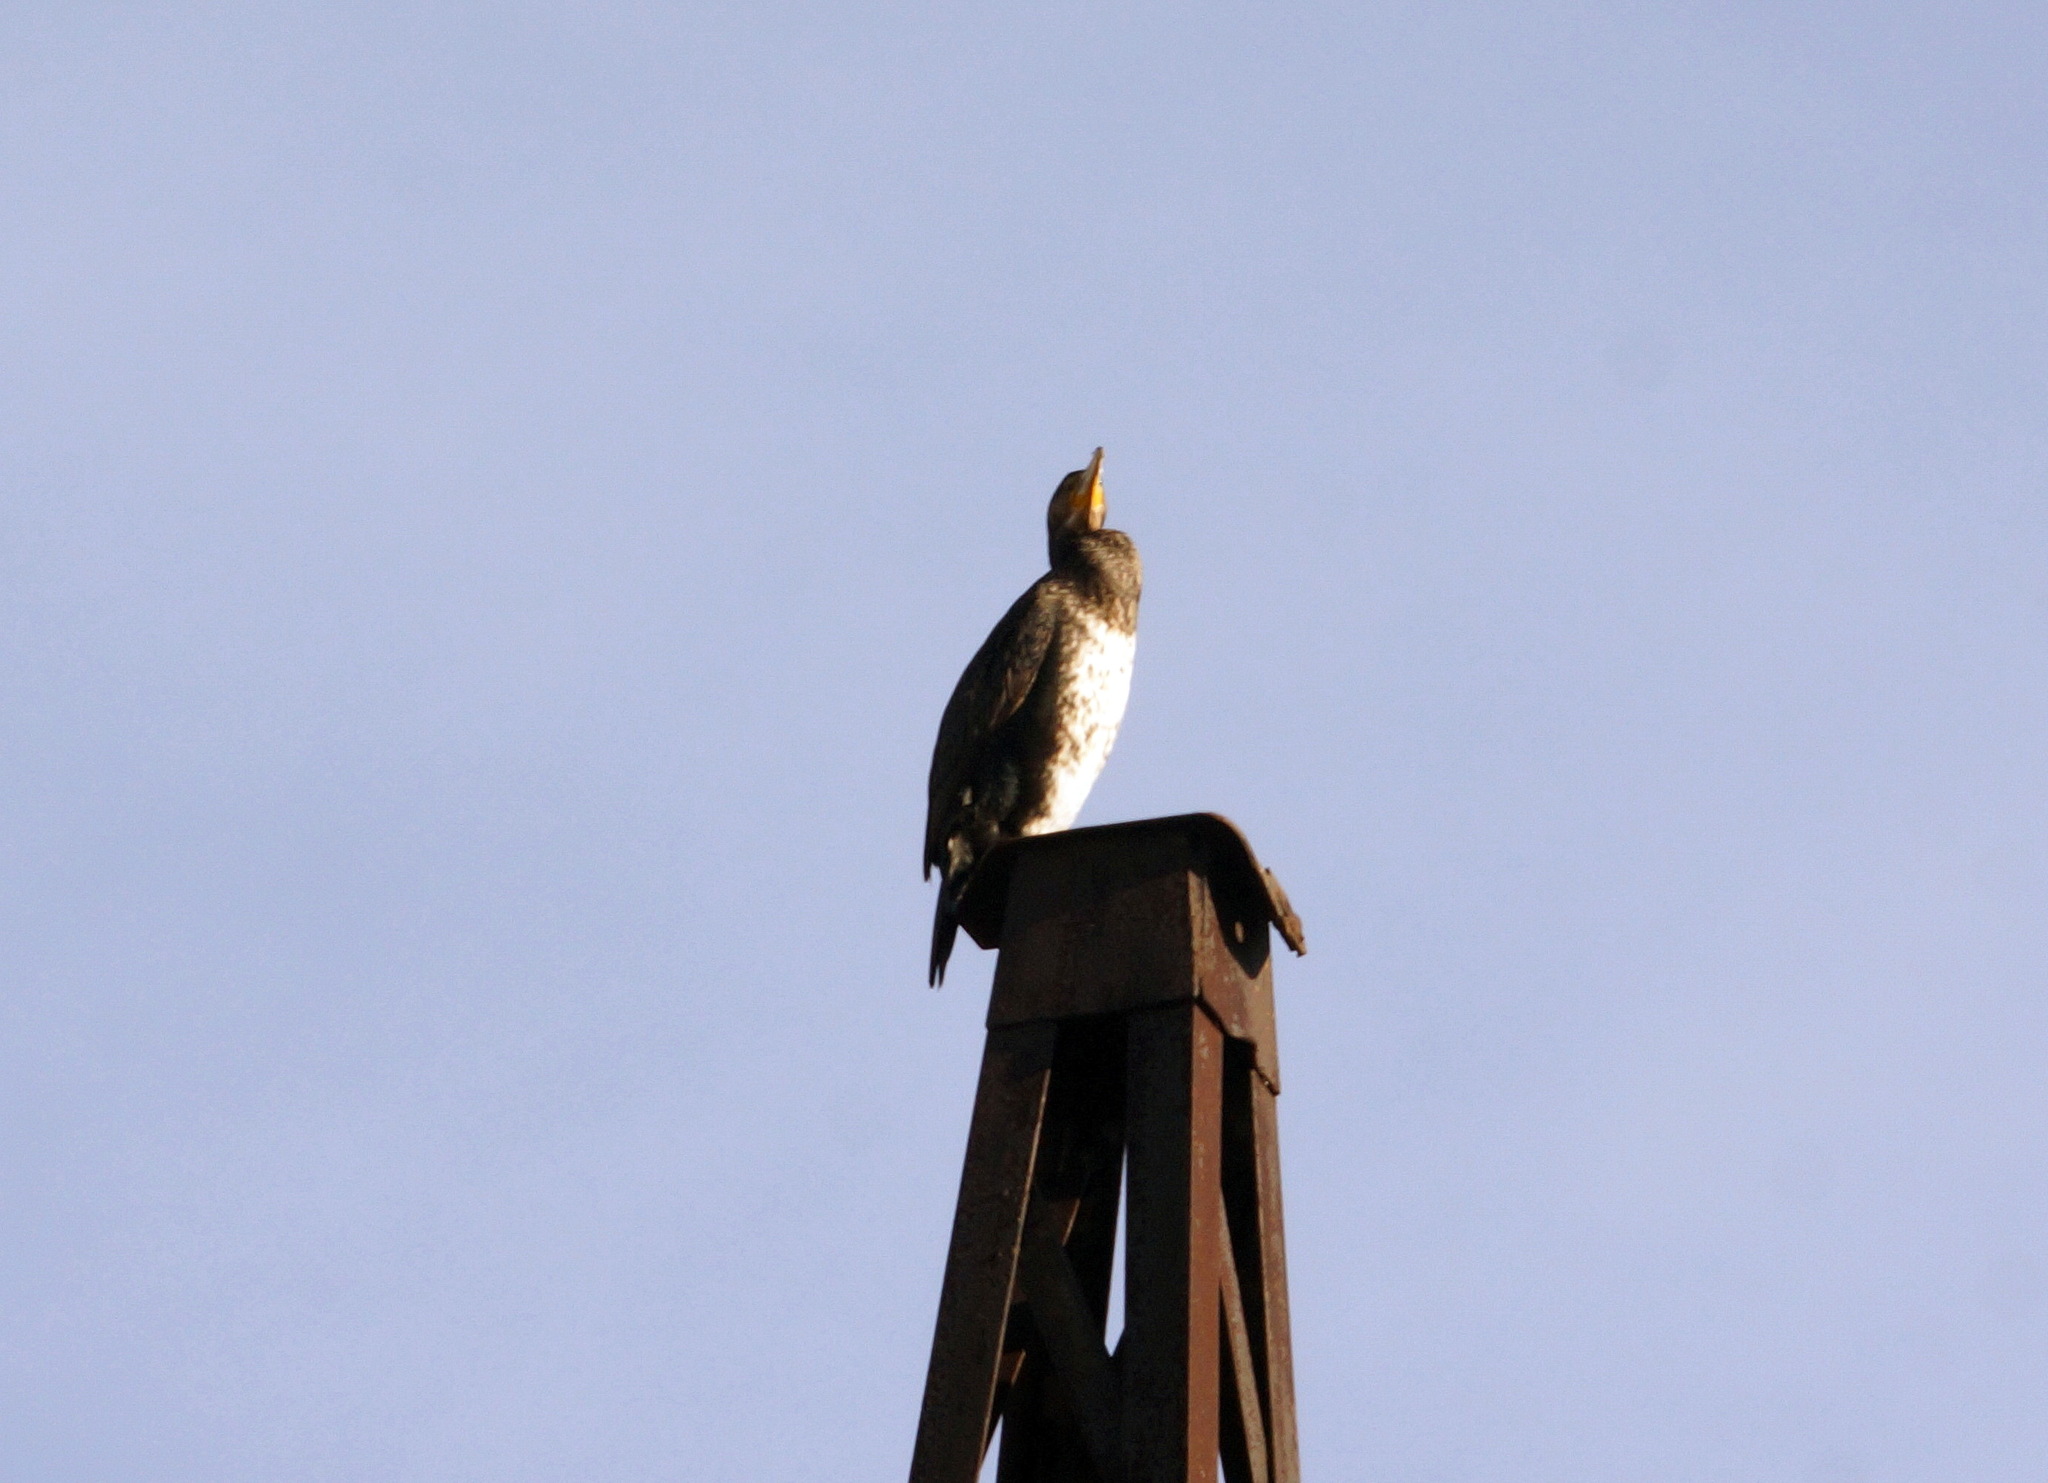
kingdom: Animalia
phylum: Chordata
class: Aves
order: Suliformes
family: Phalacrocoracidae
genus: Phalacrocorax
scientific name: Phalacrocorax carbo
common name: Great cormorant
